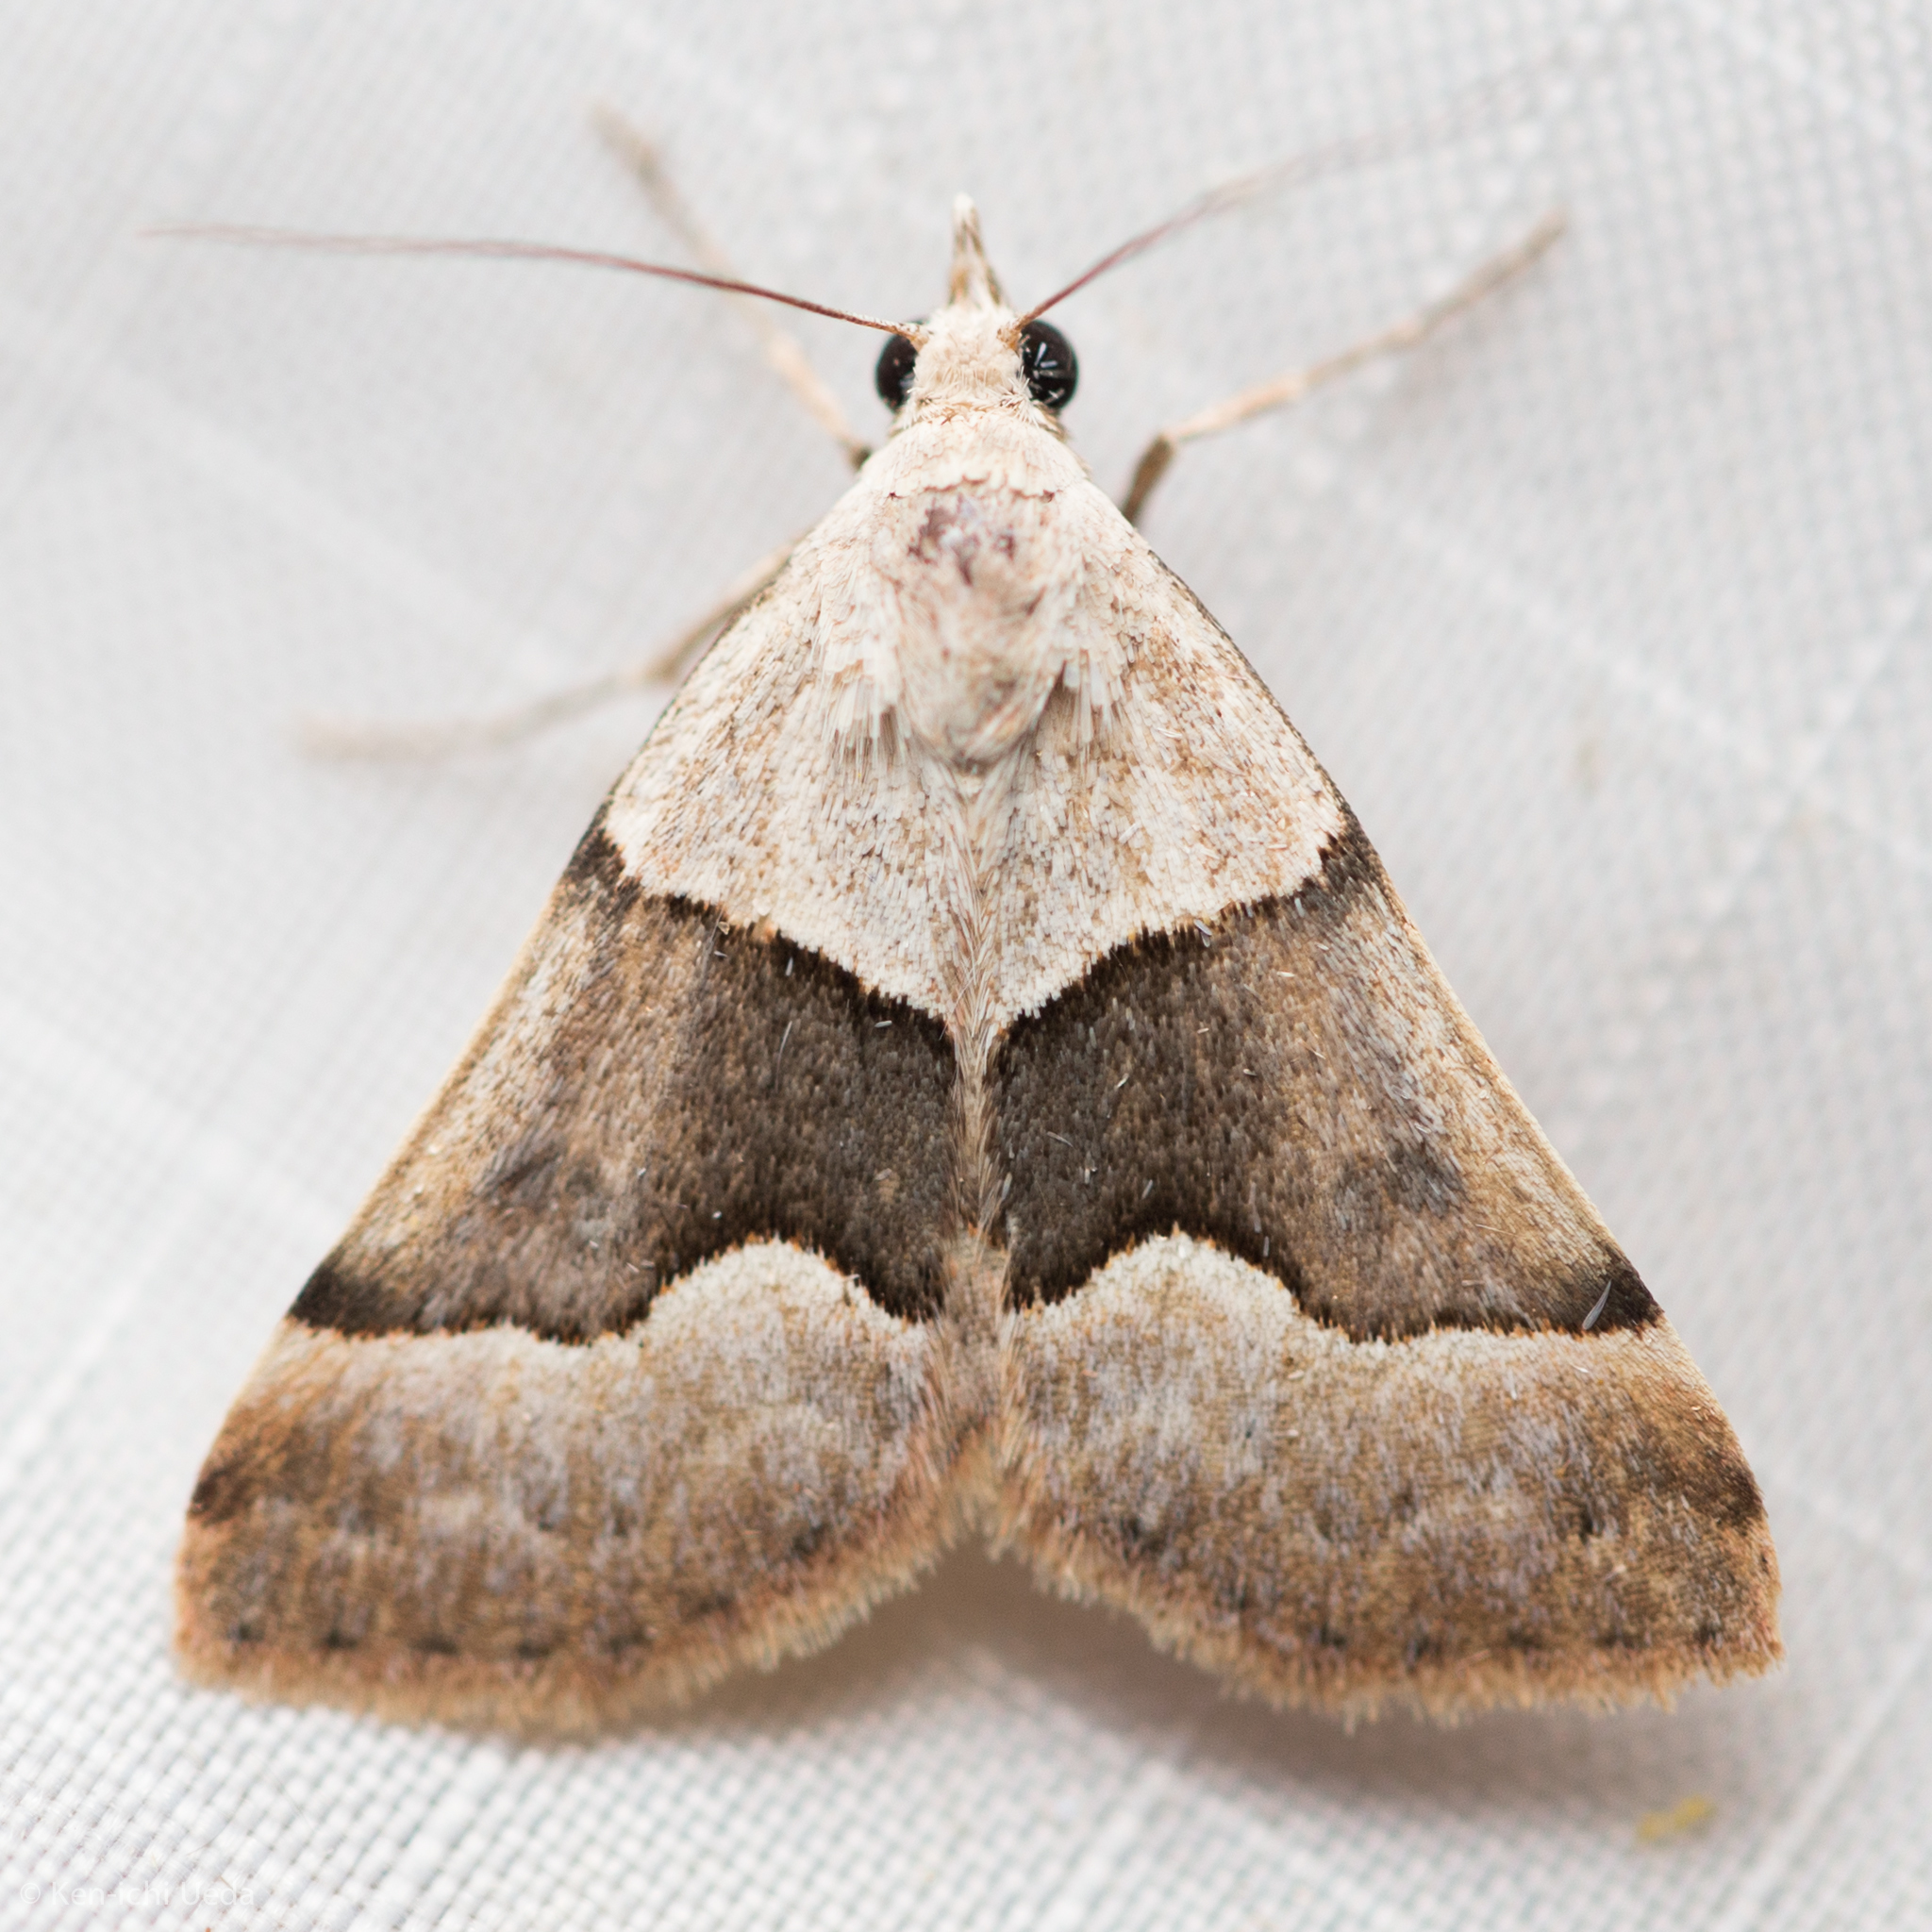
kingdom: Animalia
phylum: Arthropoda
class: Insecta
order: Lepidoptera
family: Erebidae
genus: Hemeroplanis
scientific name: Hemeroplanis incusalis
